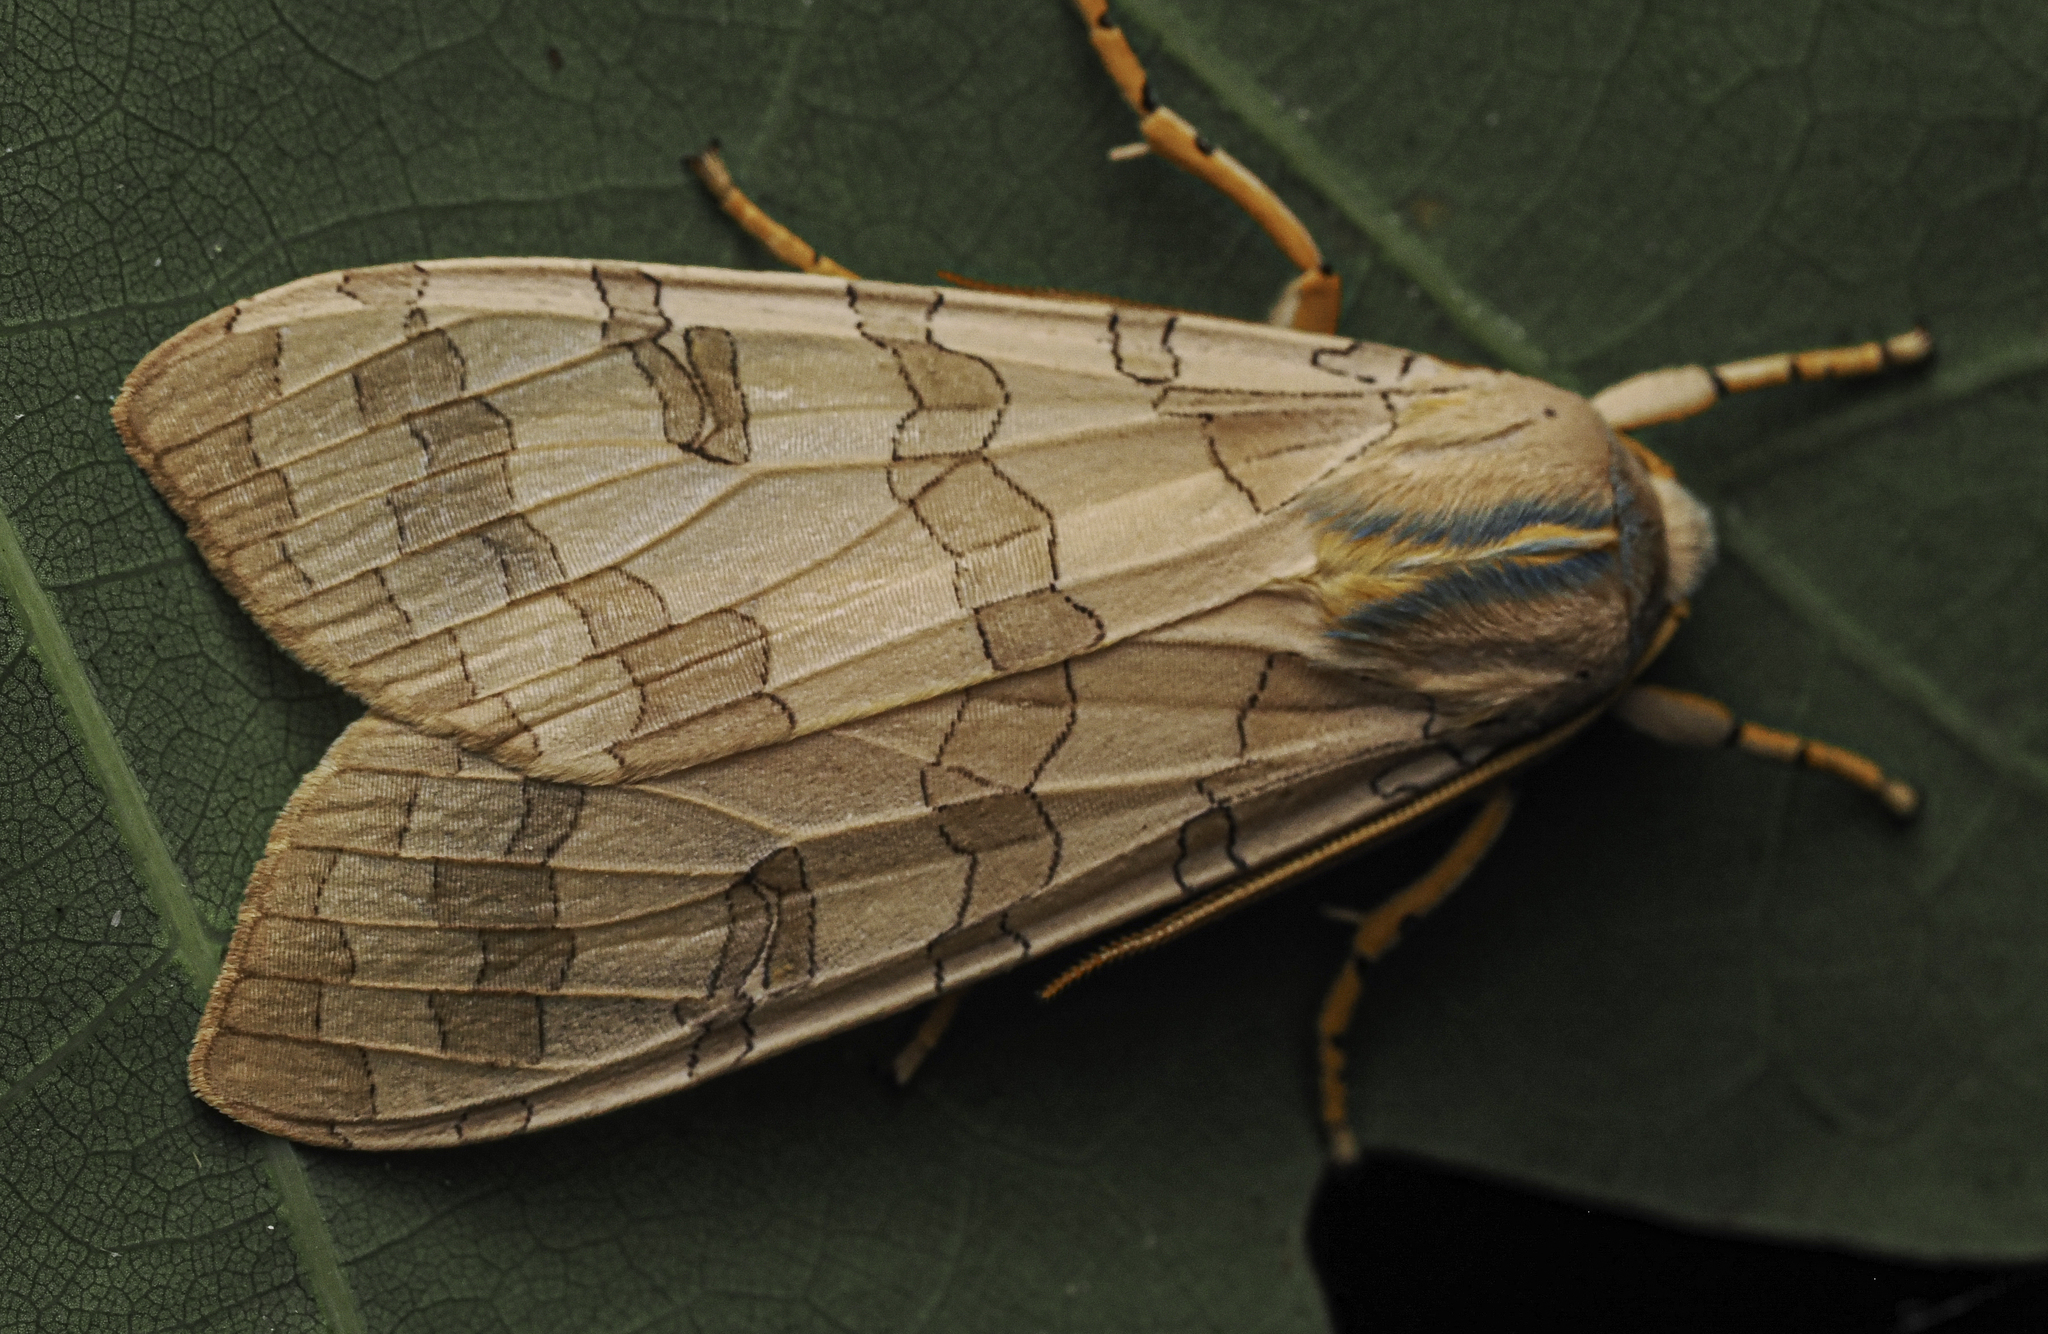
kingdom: Animalia
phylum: Arthropoda
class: Insecta
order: Lepidoptera
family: Erebidae
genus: Halysidota
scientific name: Halysidota
